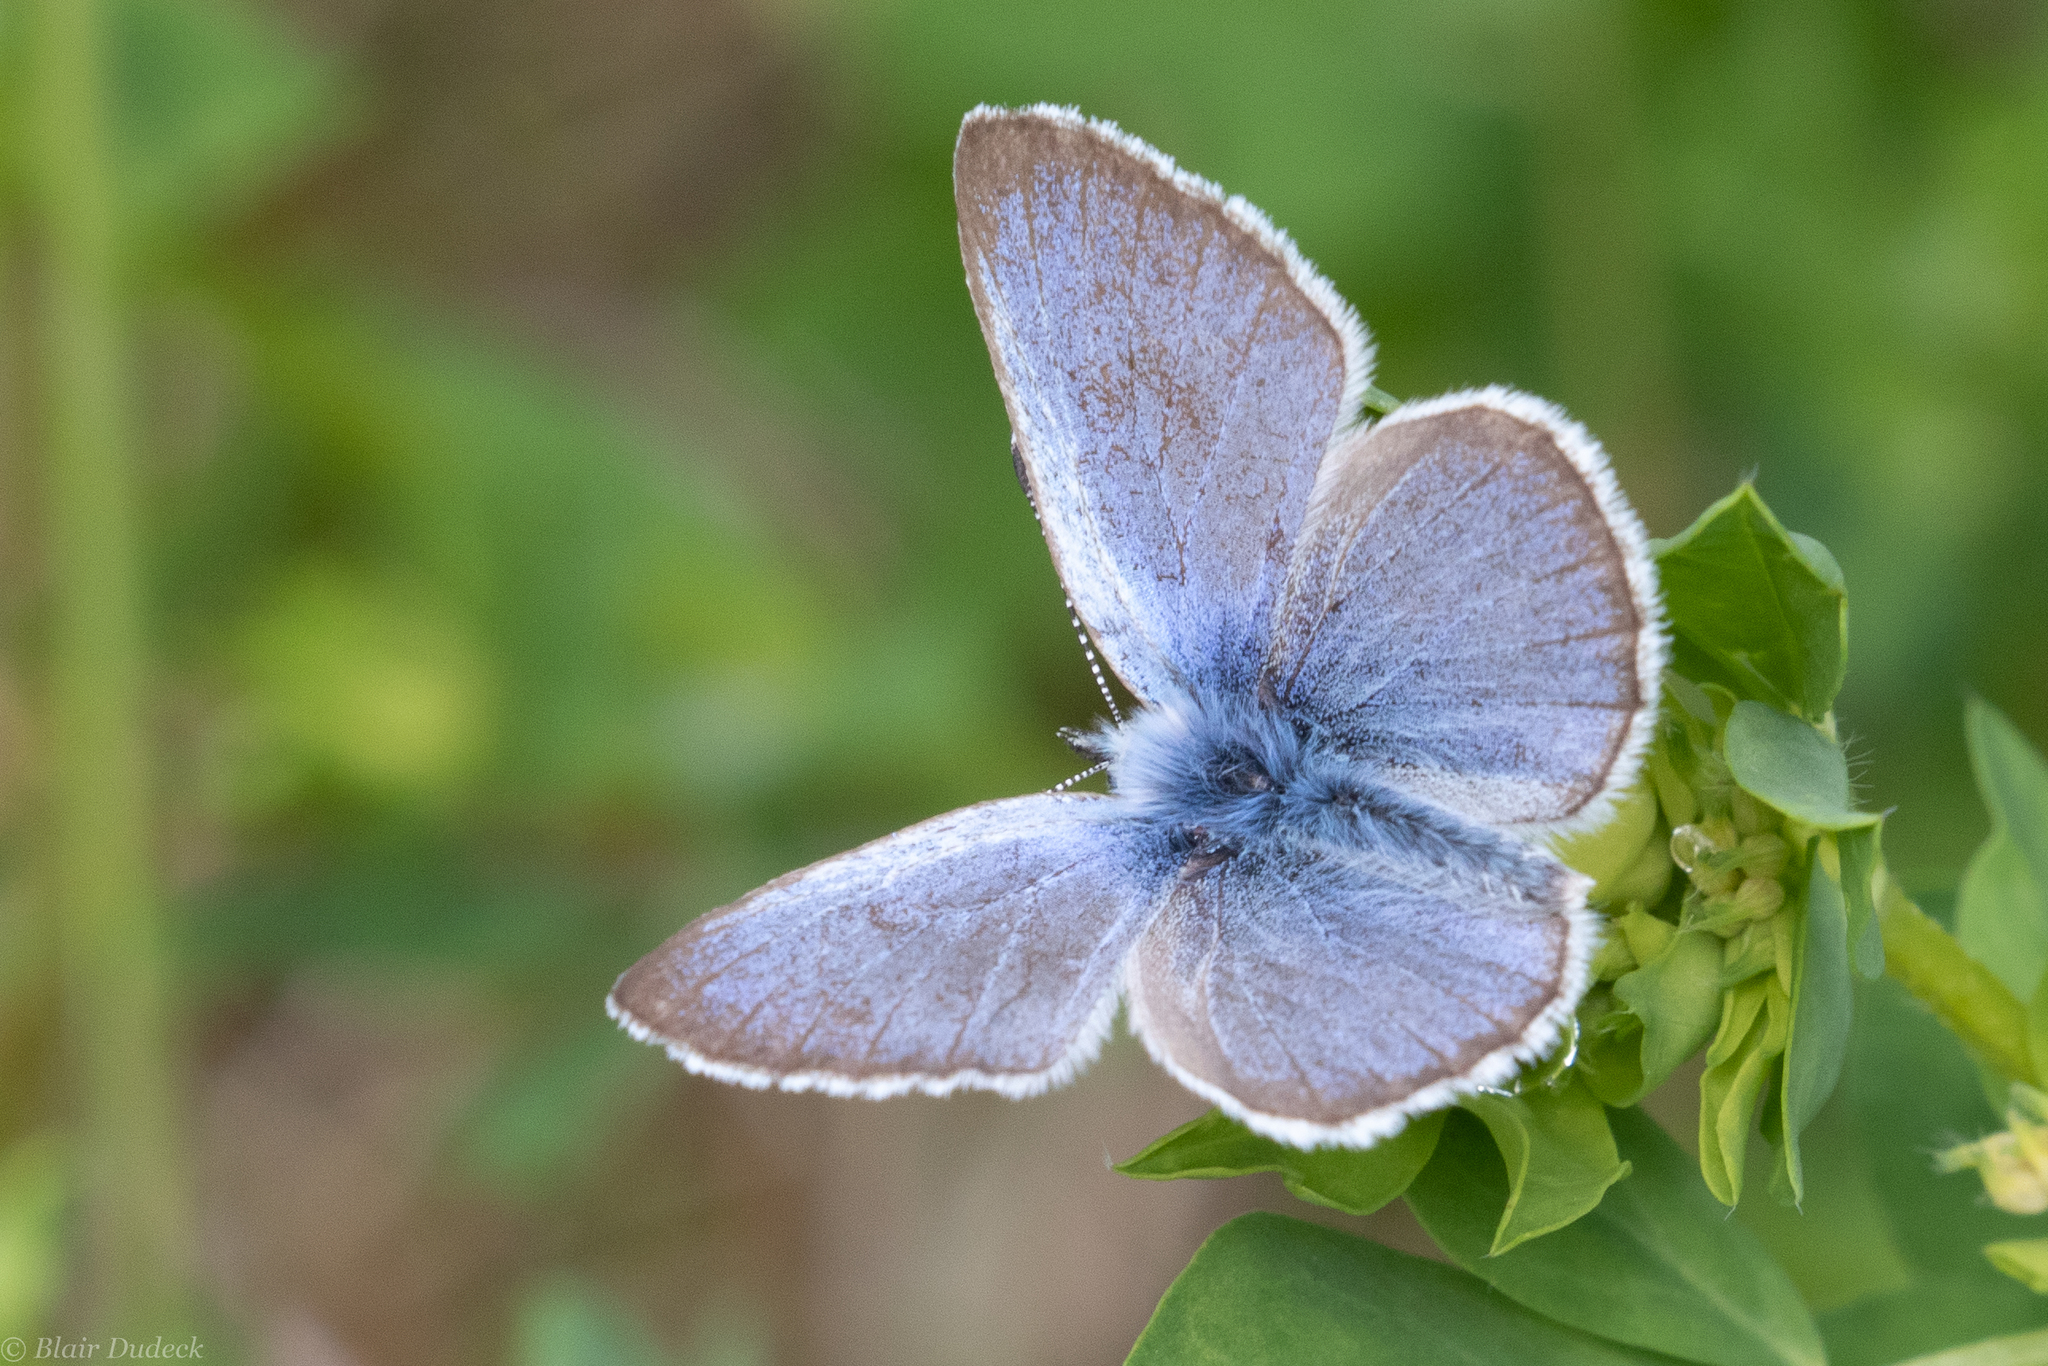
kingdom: Animalia
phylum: Arthropoda
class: Insecta
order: Lepidoptera
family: Lycaenidae
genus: Glaucopsyche
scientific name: Glaucopsyche lygdamus
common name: Silvery blue
